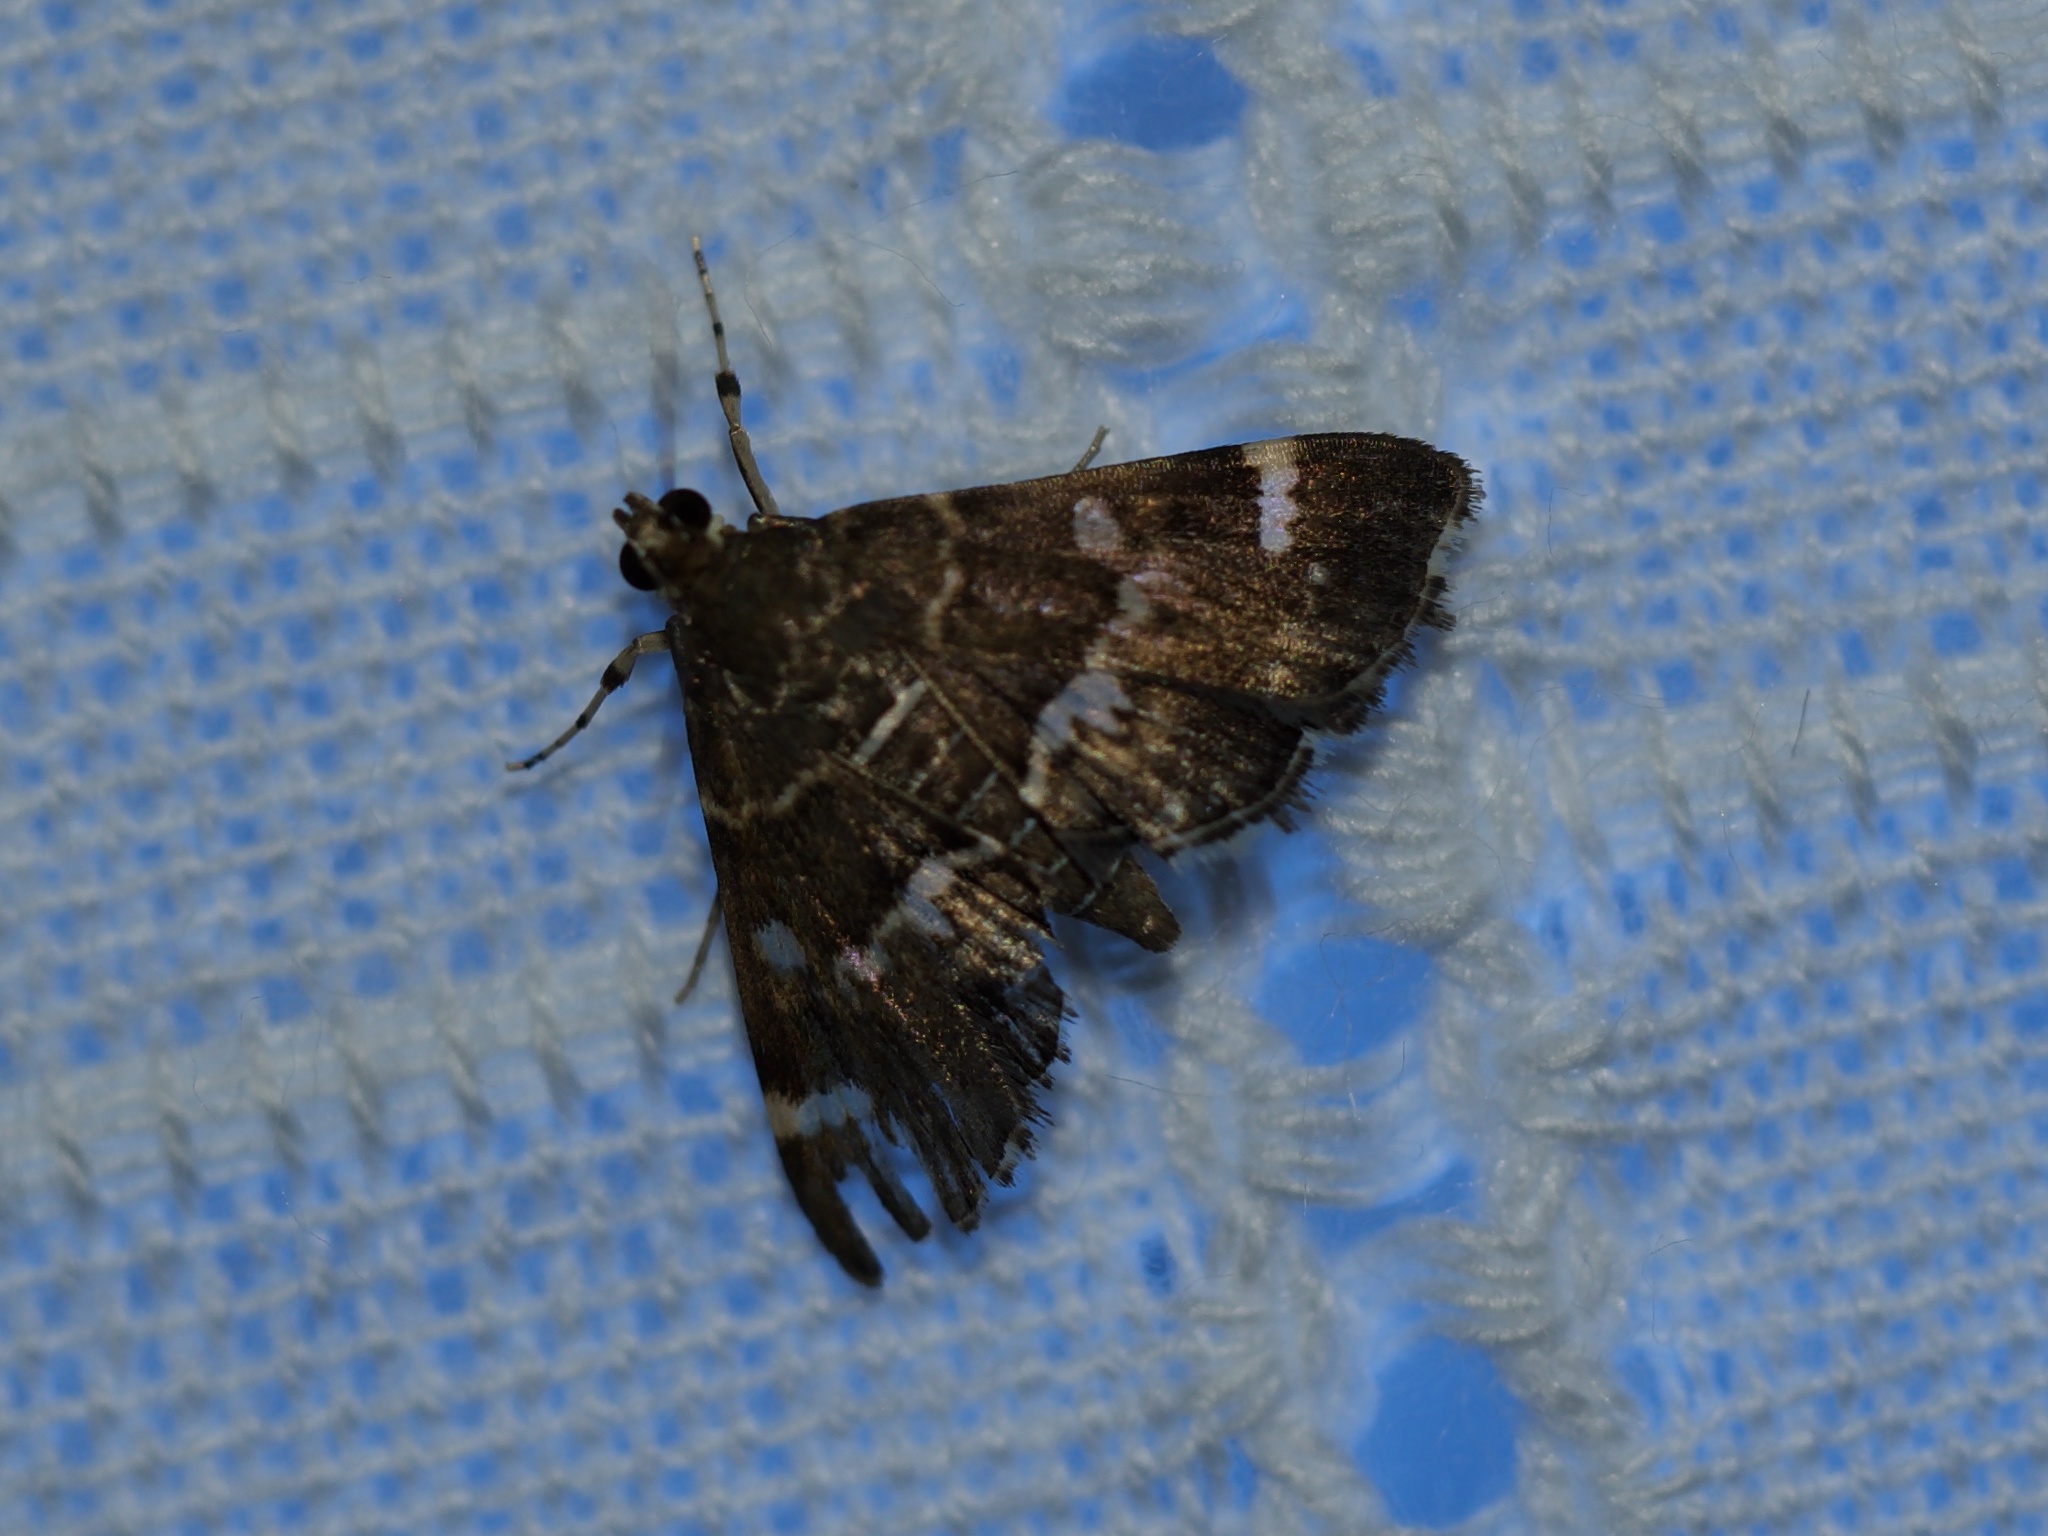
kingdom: Animalia
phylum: Arthropoda
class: Insecta
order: Lepidoptera
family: Crambidae
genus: Hymenia
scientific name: Hymenia perspectalis
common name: Spotted beet webworm
